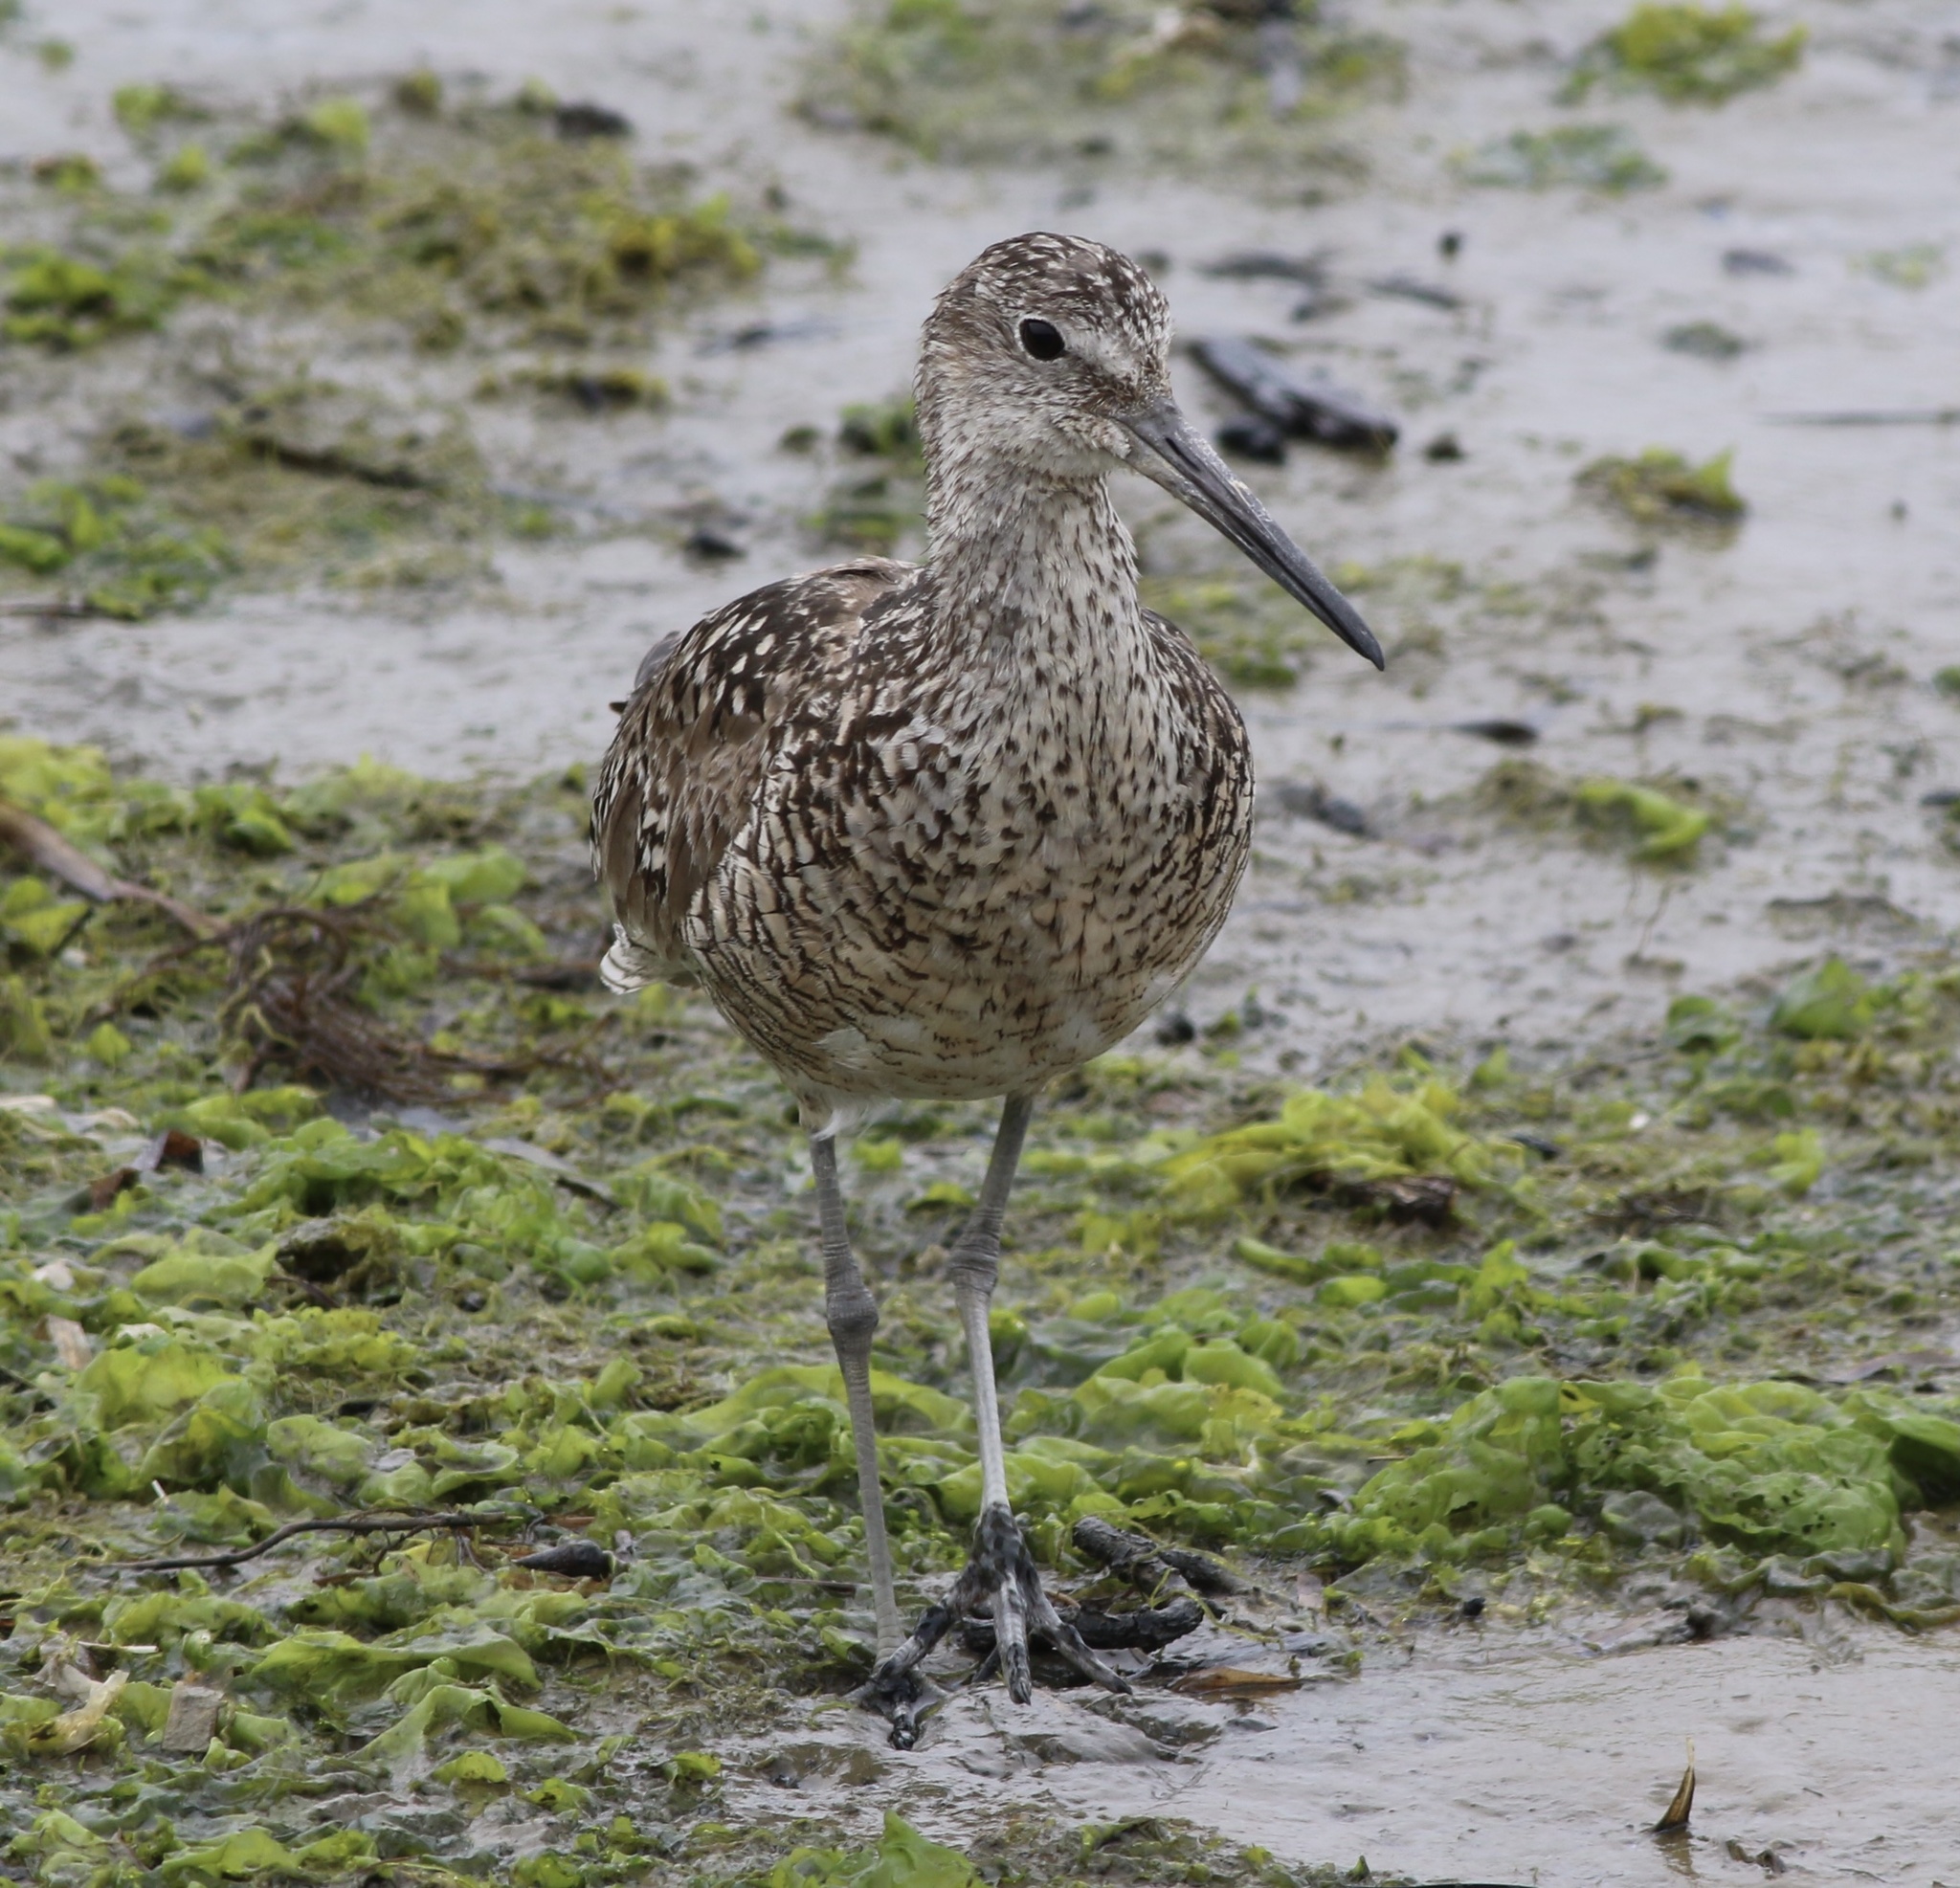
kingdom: Animalia
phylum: Chordata
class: Aves
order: Charadriiformes
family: Scolopacidae
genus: Tringa
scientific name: Tringa semipalmata
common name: Willet
